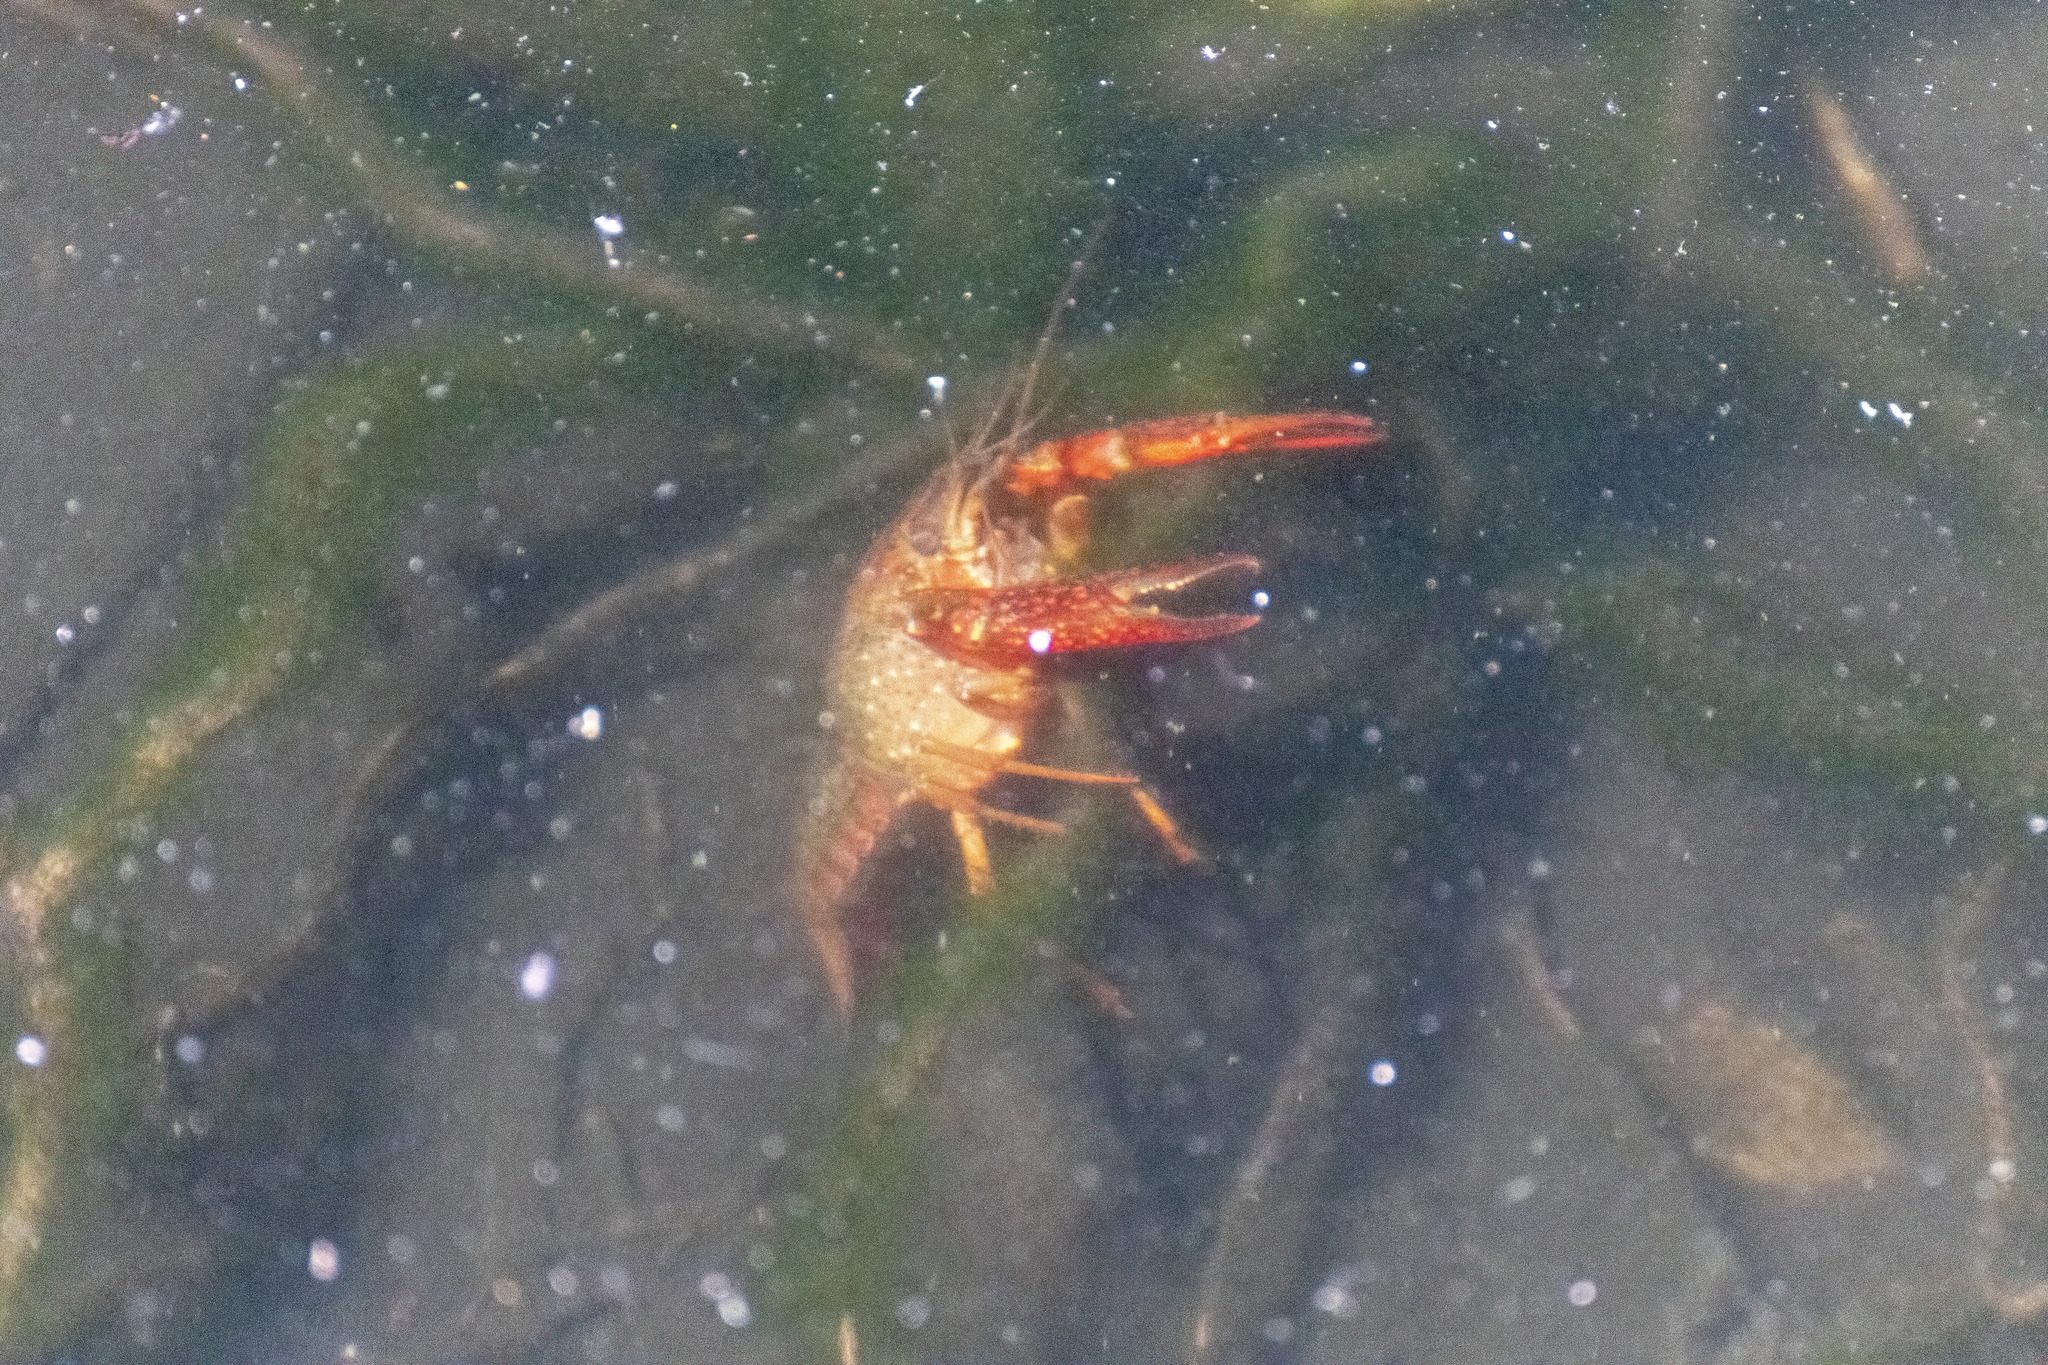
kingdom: Animalia
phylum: Arthropoda
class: Malacostraca
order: Decapoda
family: Cambaridae
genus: Procambarus
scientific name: Procambarus clarkii
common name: Red swamp crayfish
